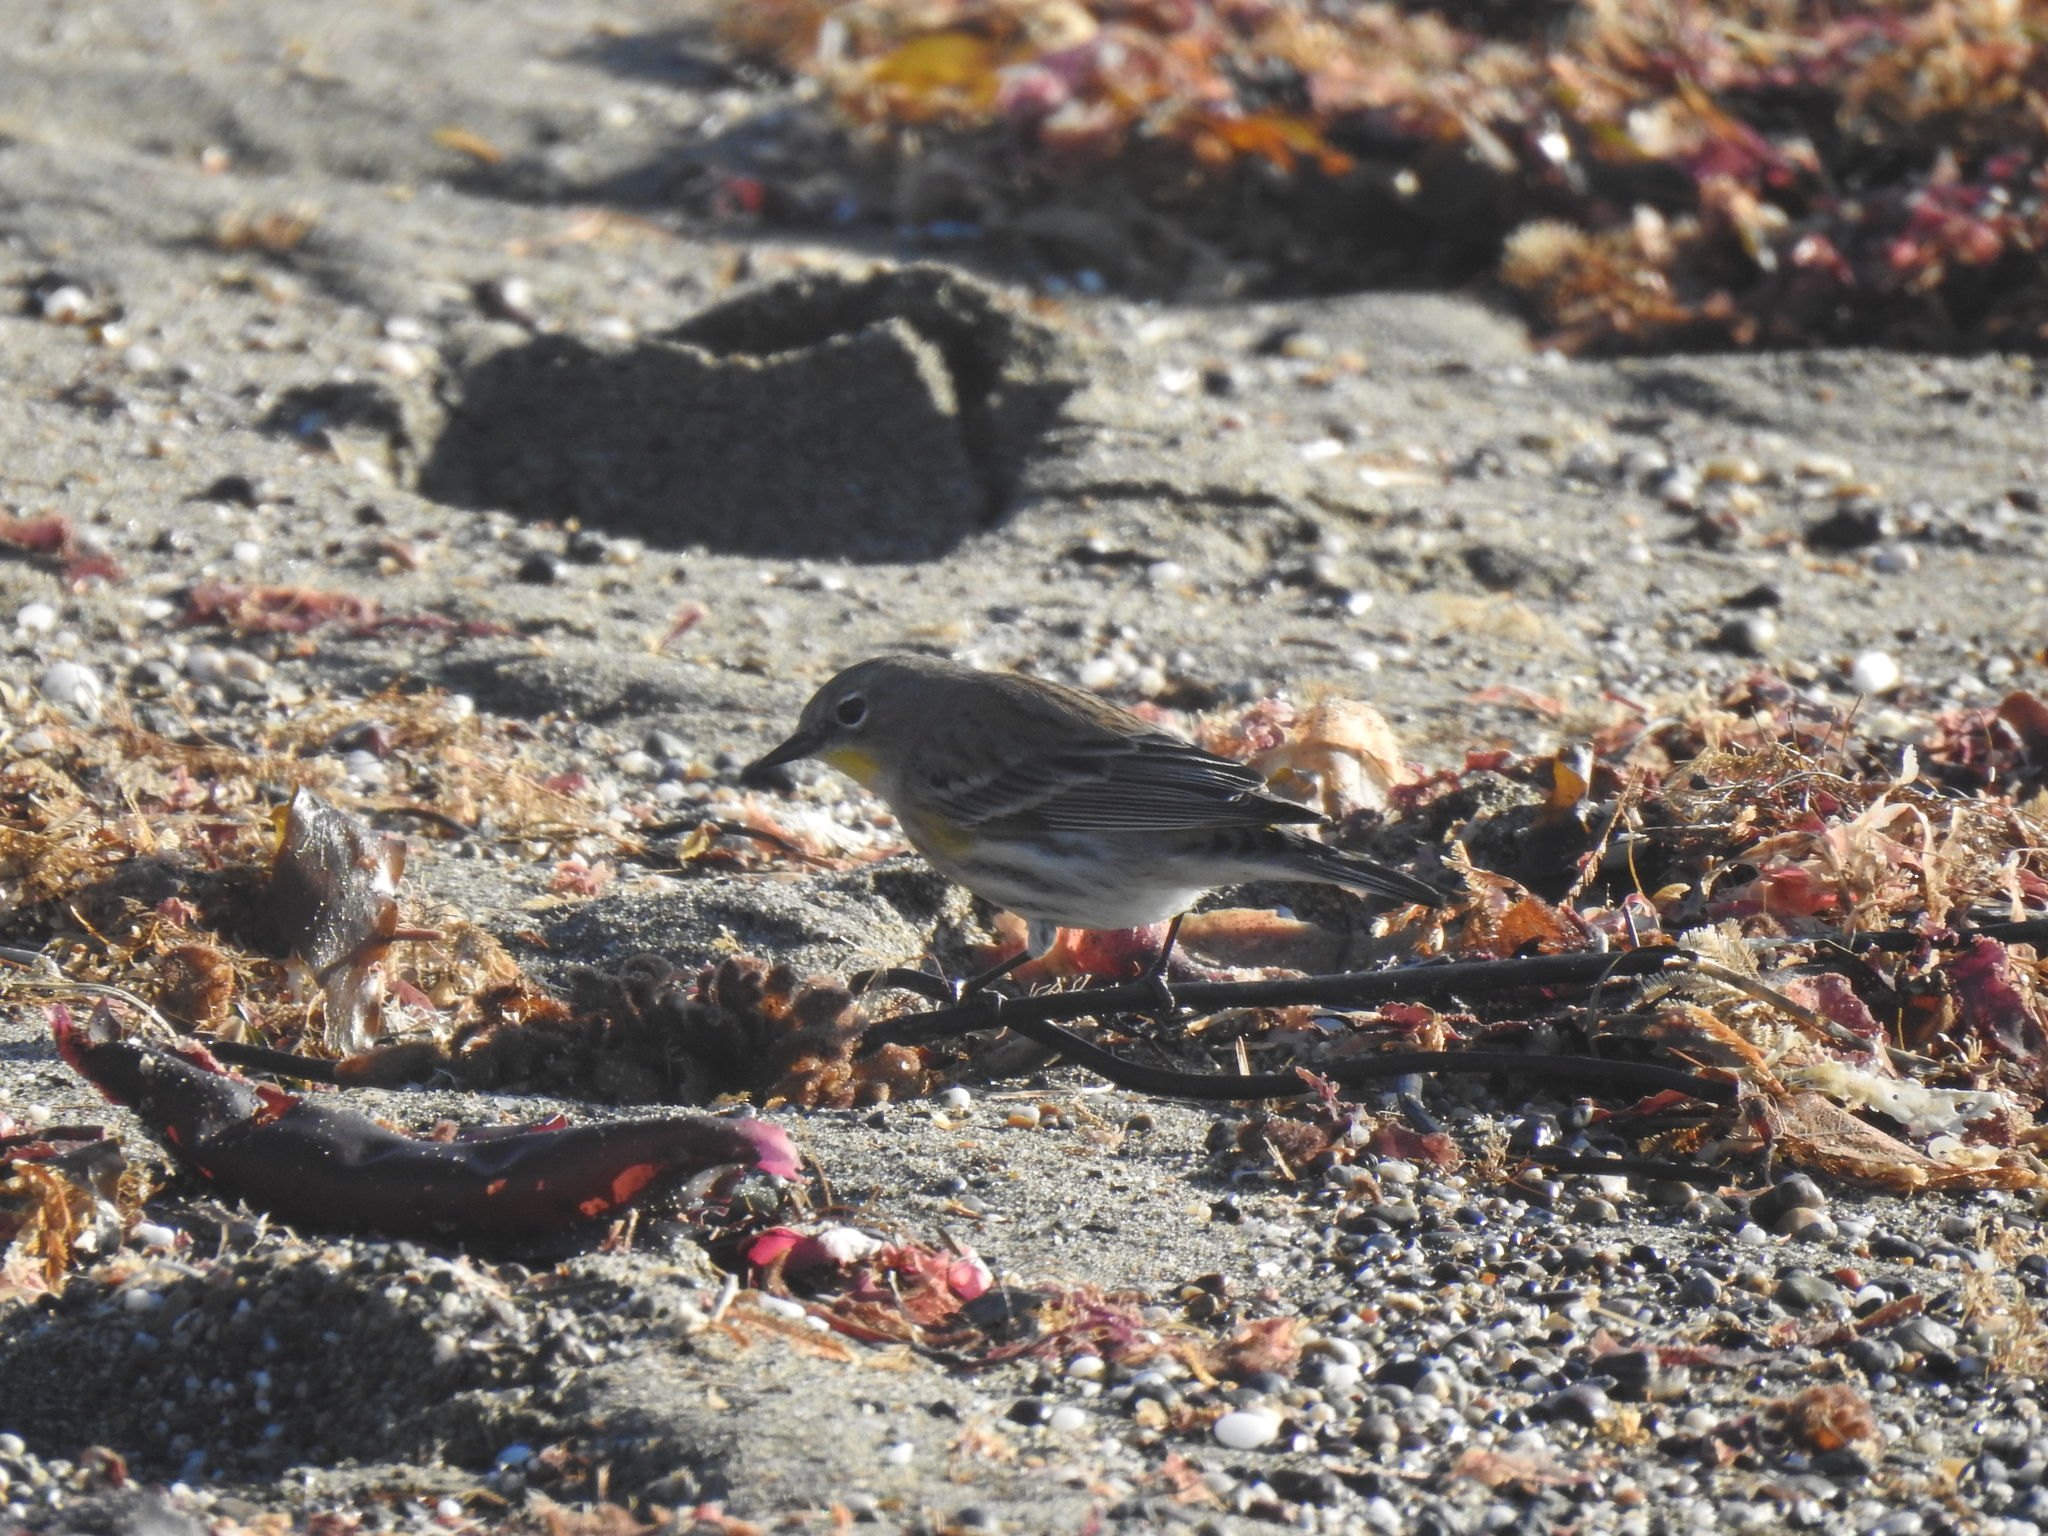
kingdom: Animalia
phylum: Chordata
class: Aves
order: Passeriformes
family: Parulidae
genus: Setophaga
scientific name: Setophaga coronata
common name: Myrtle warbler
